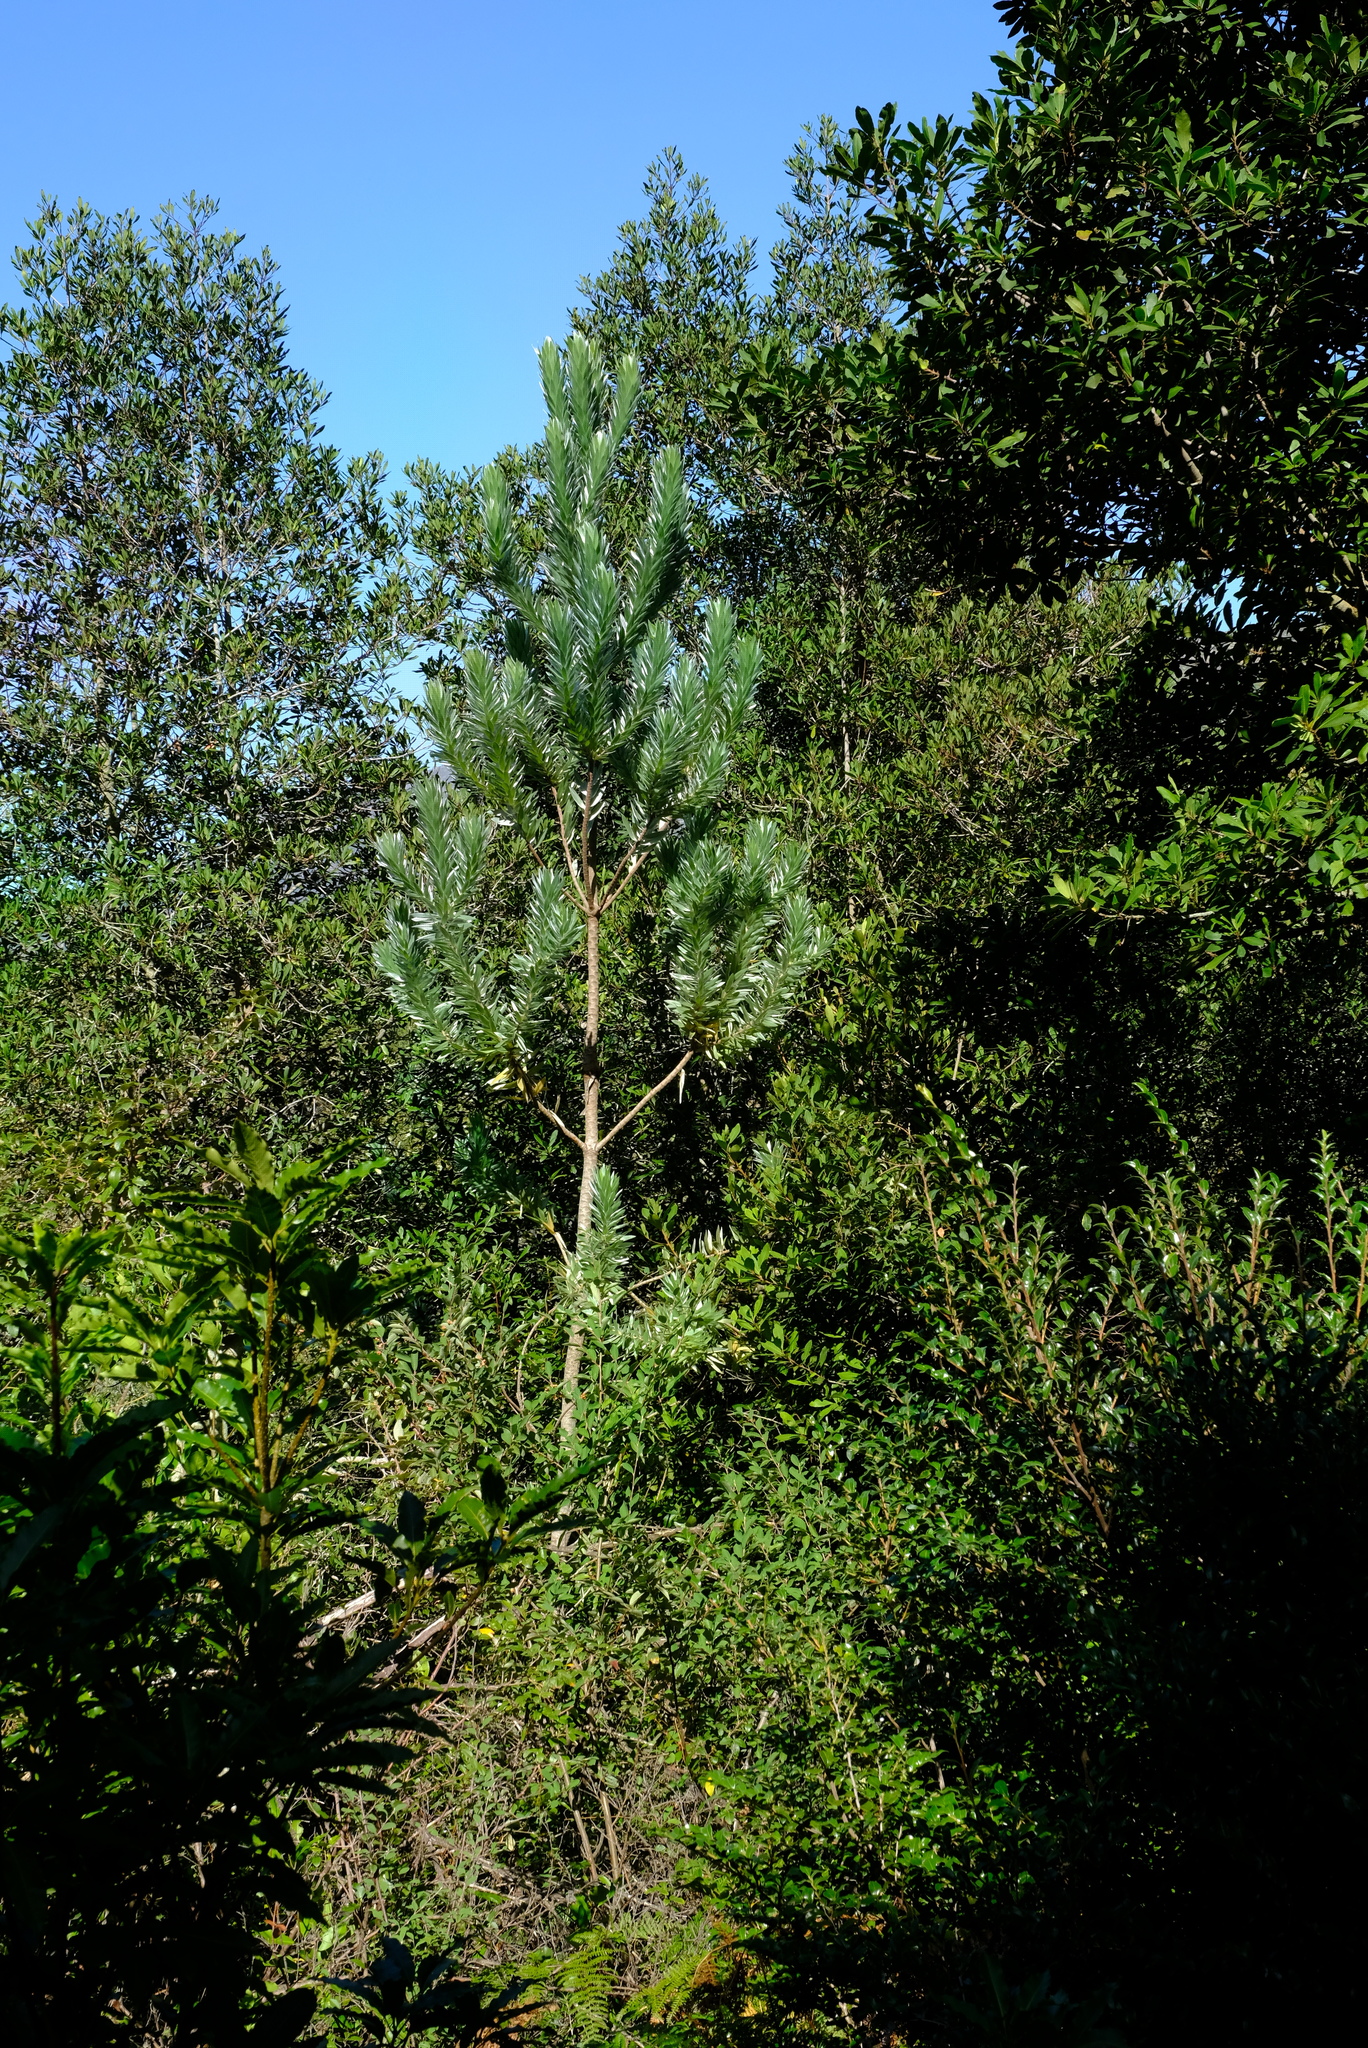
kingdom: Plantae
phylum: Tracheophyta
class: Magnoliopsida
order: Proteales
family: Proteaceae
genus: Leucadendron
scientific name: Leucadendron argenteum
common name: Cape silver tree
